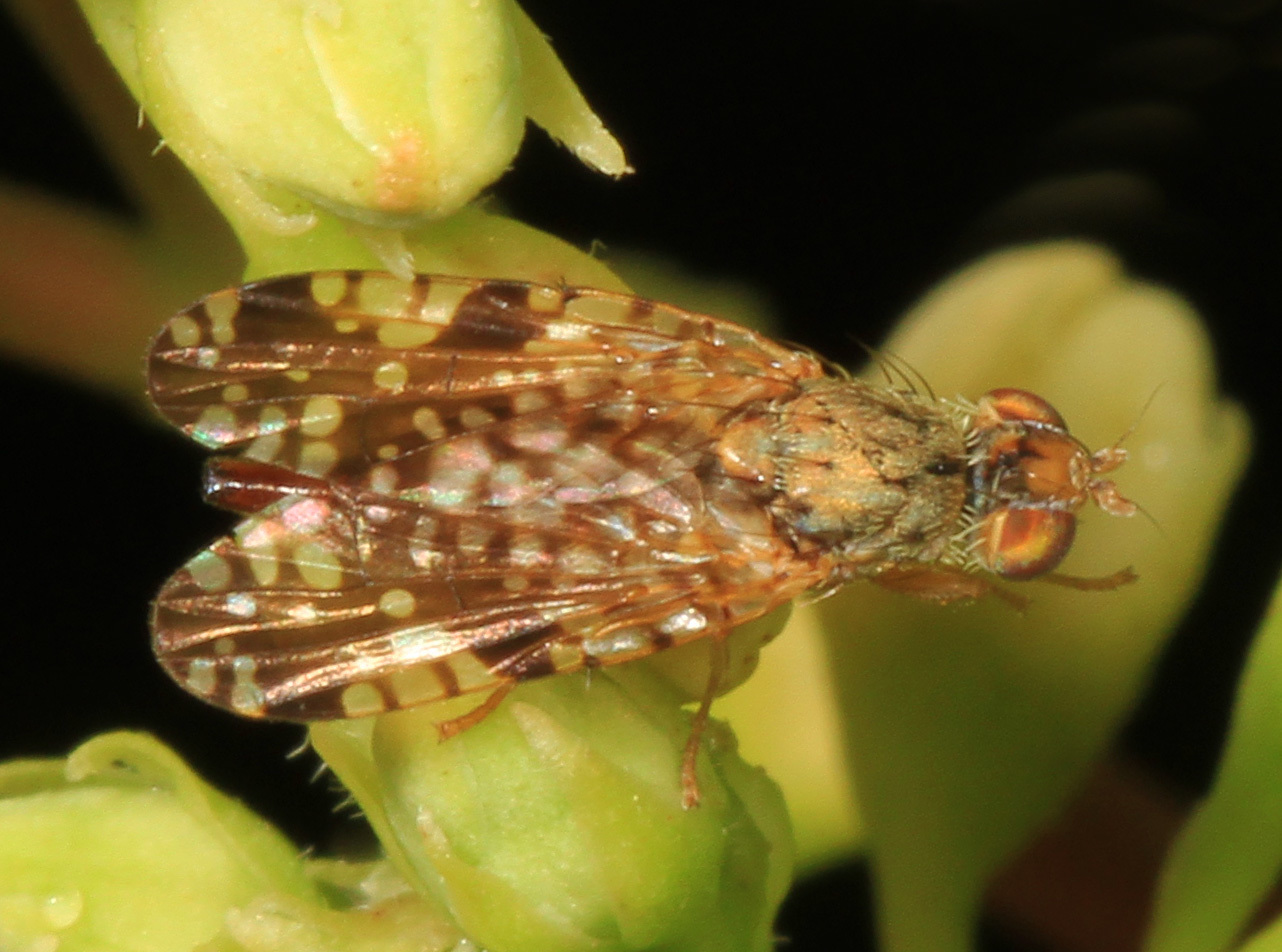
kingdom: Animalia
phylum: Arthropoda
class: Insecta
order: Diptera
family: Tephritidae
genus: Neotephritis
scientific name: Neotephritis finalis
